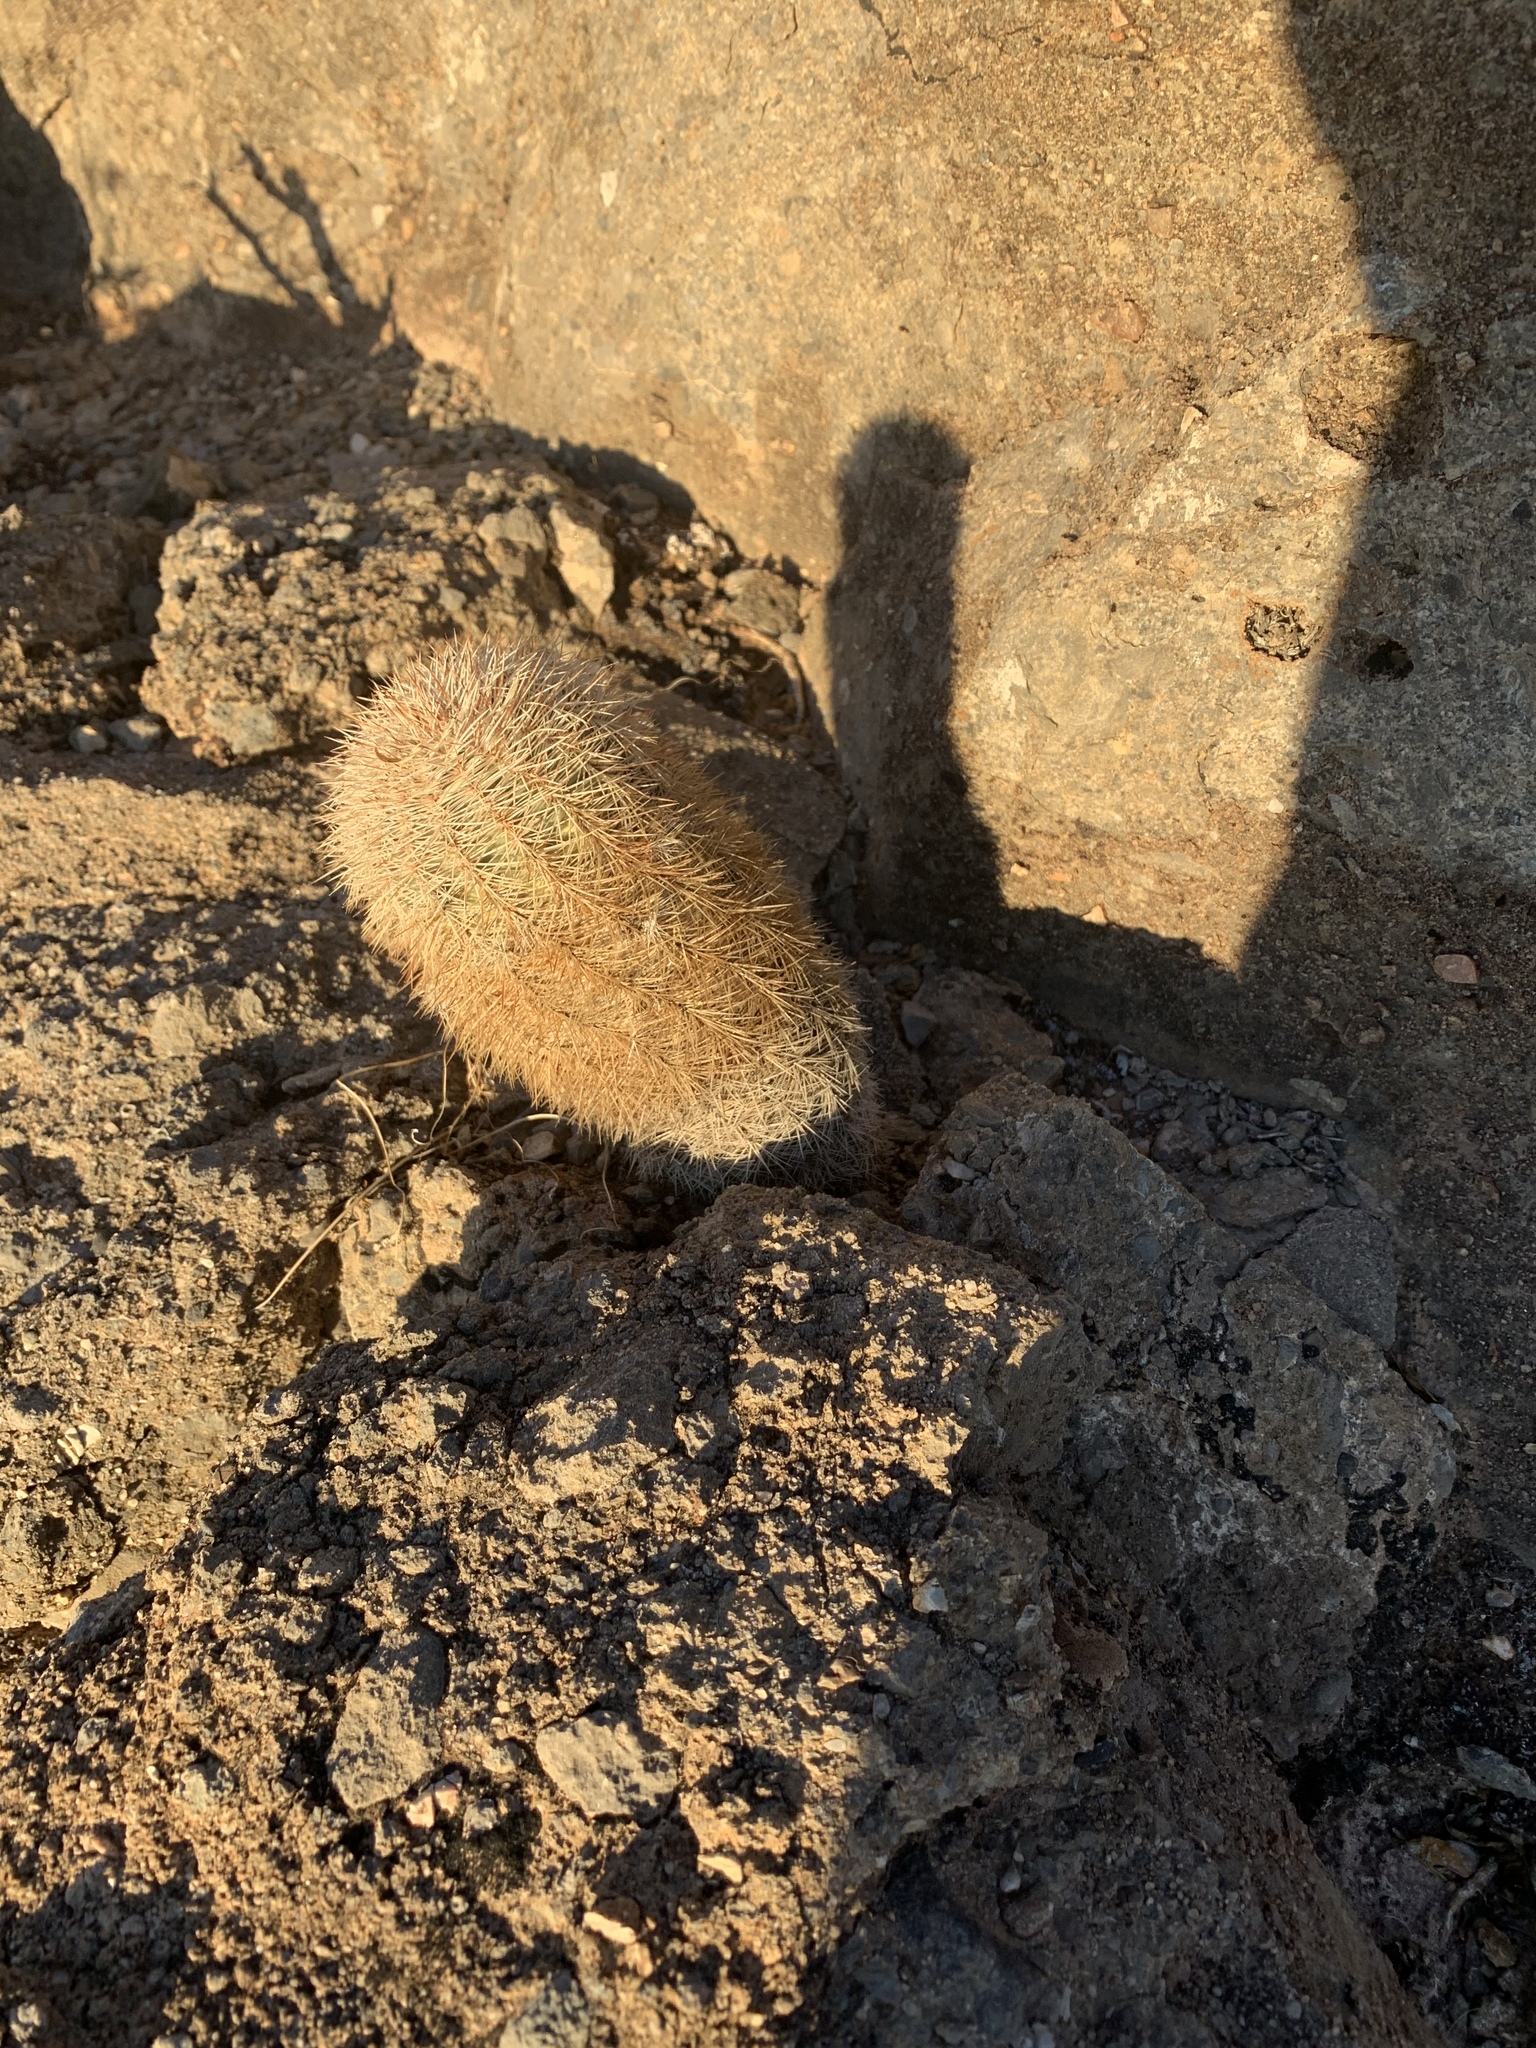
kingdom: Plantae
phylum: Tracheophyta
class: Magnoliopsida
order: Caryophyllales
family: Cactaceae
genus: Echinocereus
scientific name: Echinocereus dasyacanthus
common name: Spiny hedgehog cactus
